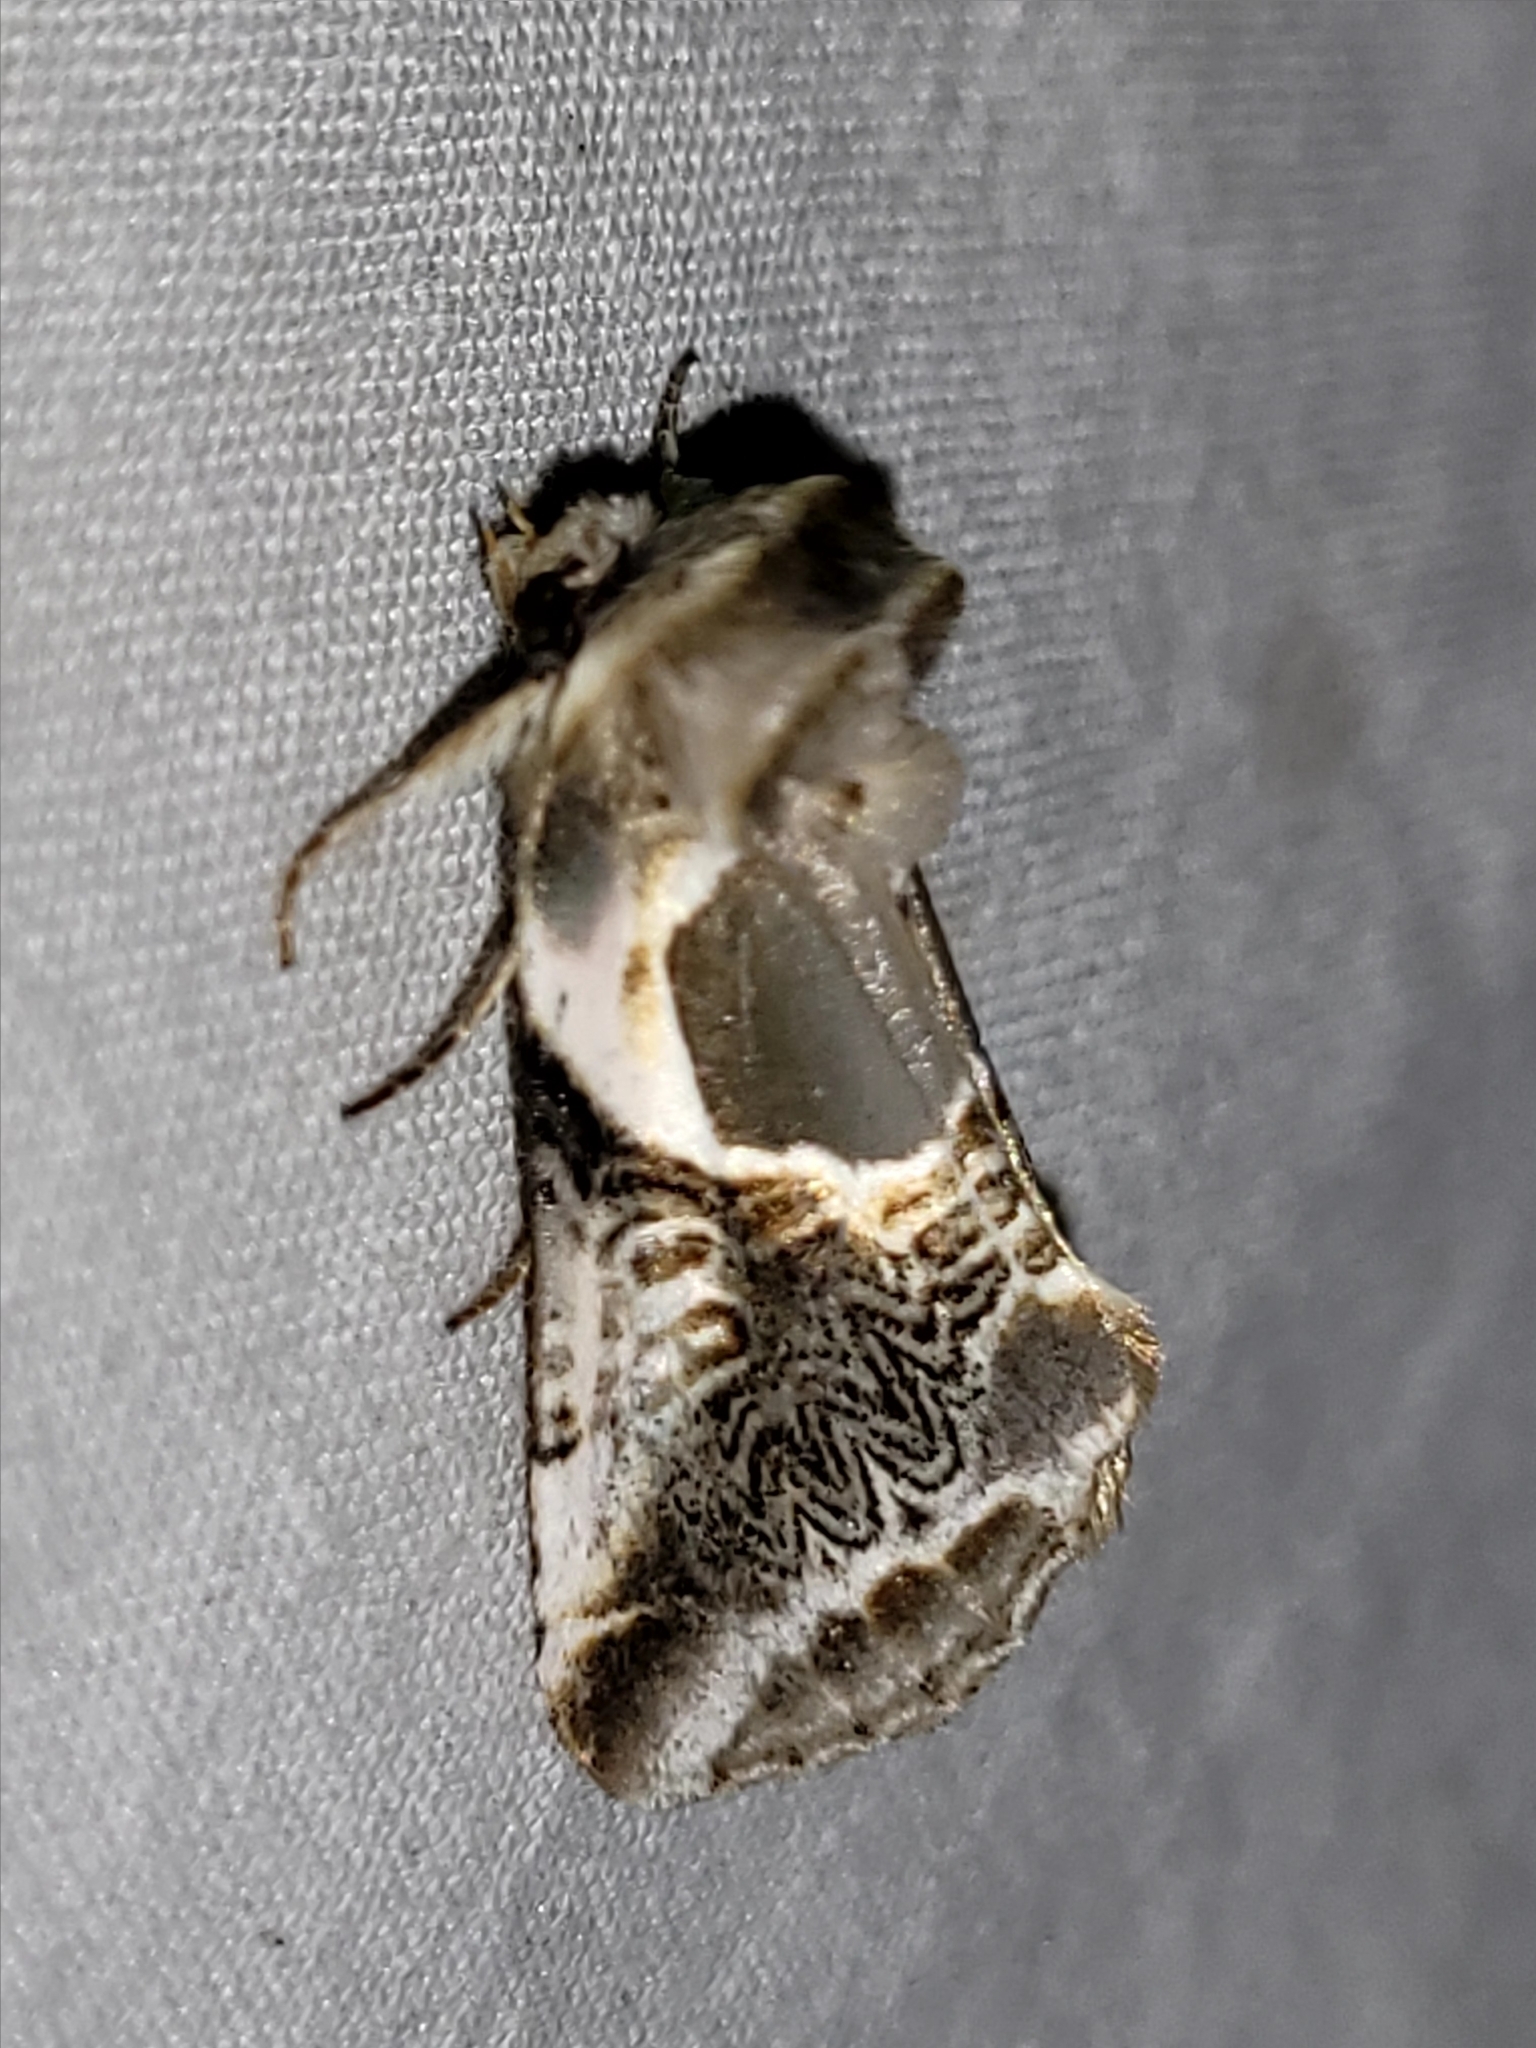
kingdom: Animalia
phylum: Arthropoda
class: Insecta
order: Lepidoptera
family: Drepanidae
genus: Habrosyne
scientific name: Habrosyne scripta
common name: Lettered habrosyne moth
